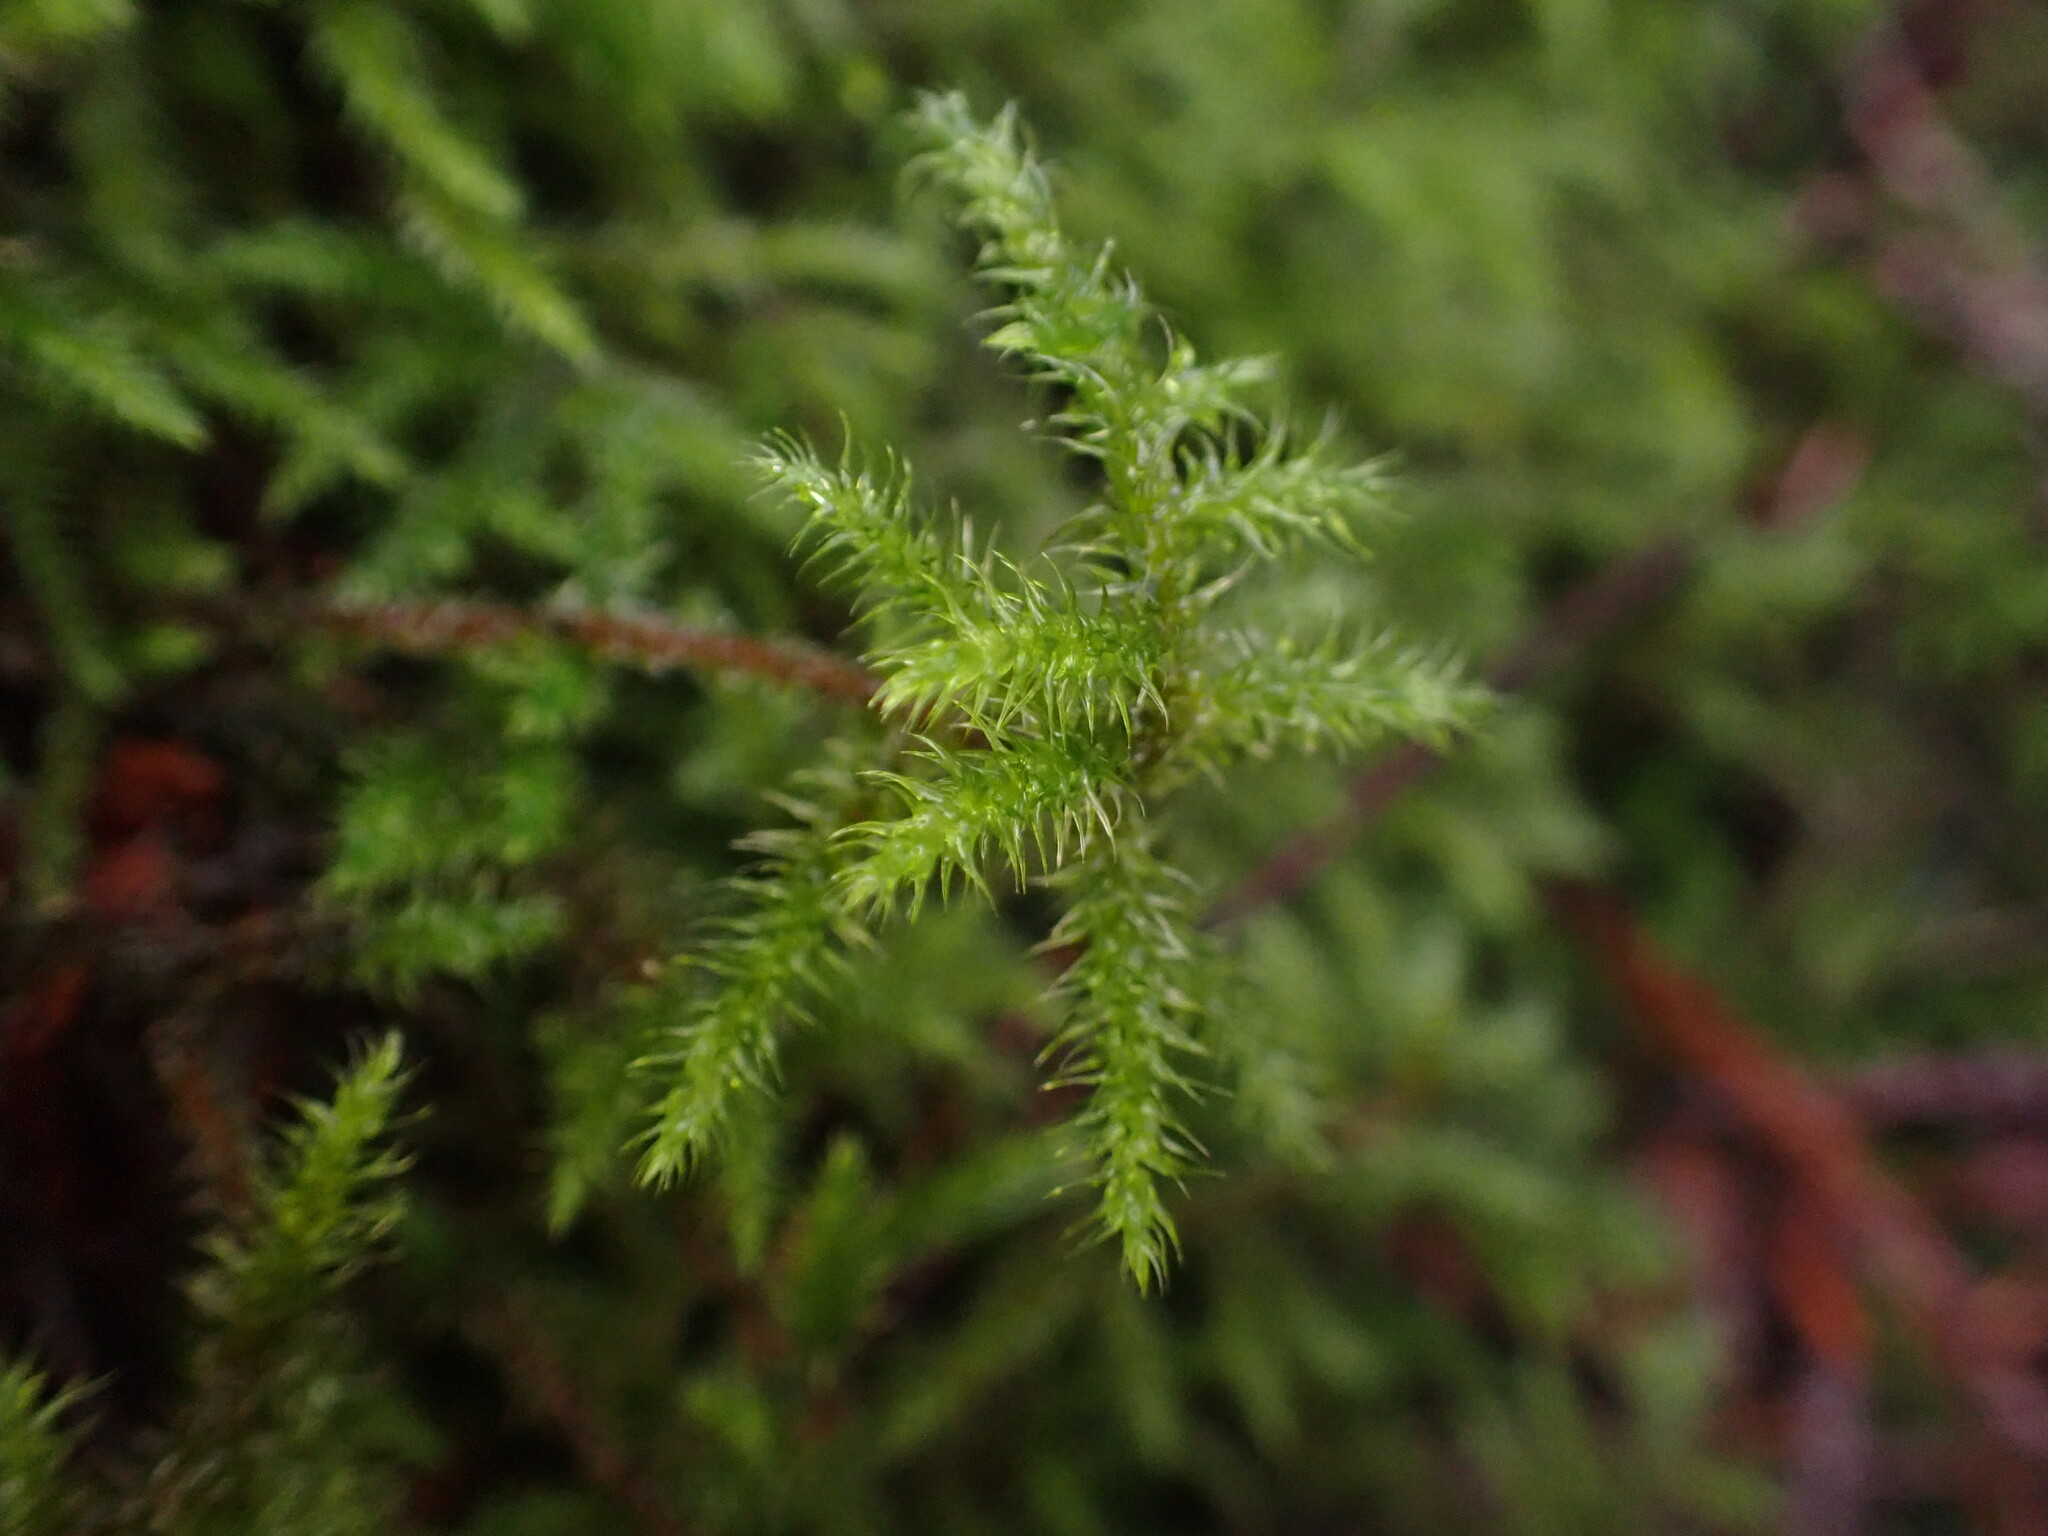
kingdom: Plantae
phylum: Bryophyta
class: Bryopsida
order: Hypnales
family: Hylocomiaceae
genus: Rhytidiadelphus
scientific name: Rhytidiadelphus loreus
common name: Lanky moss
